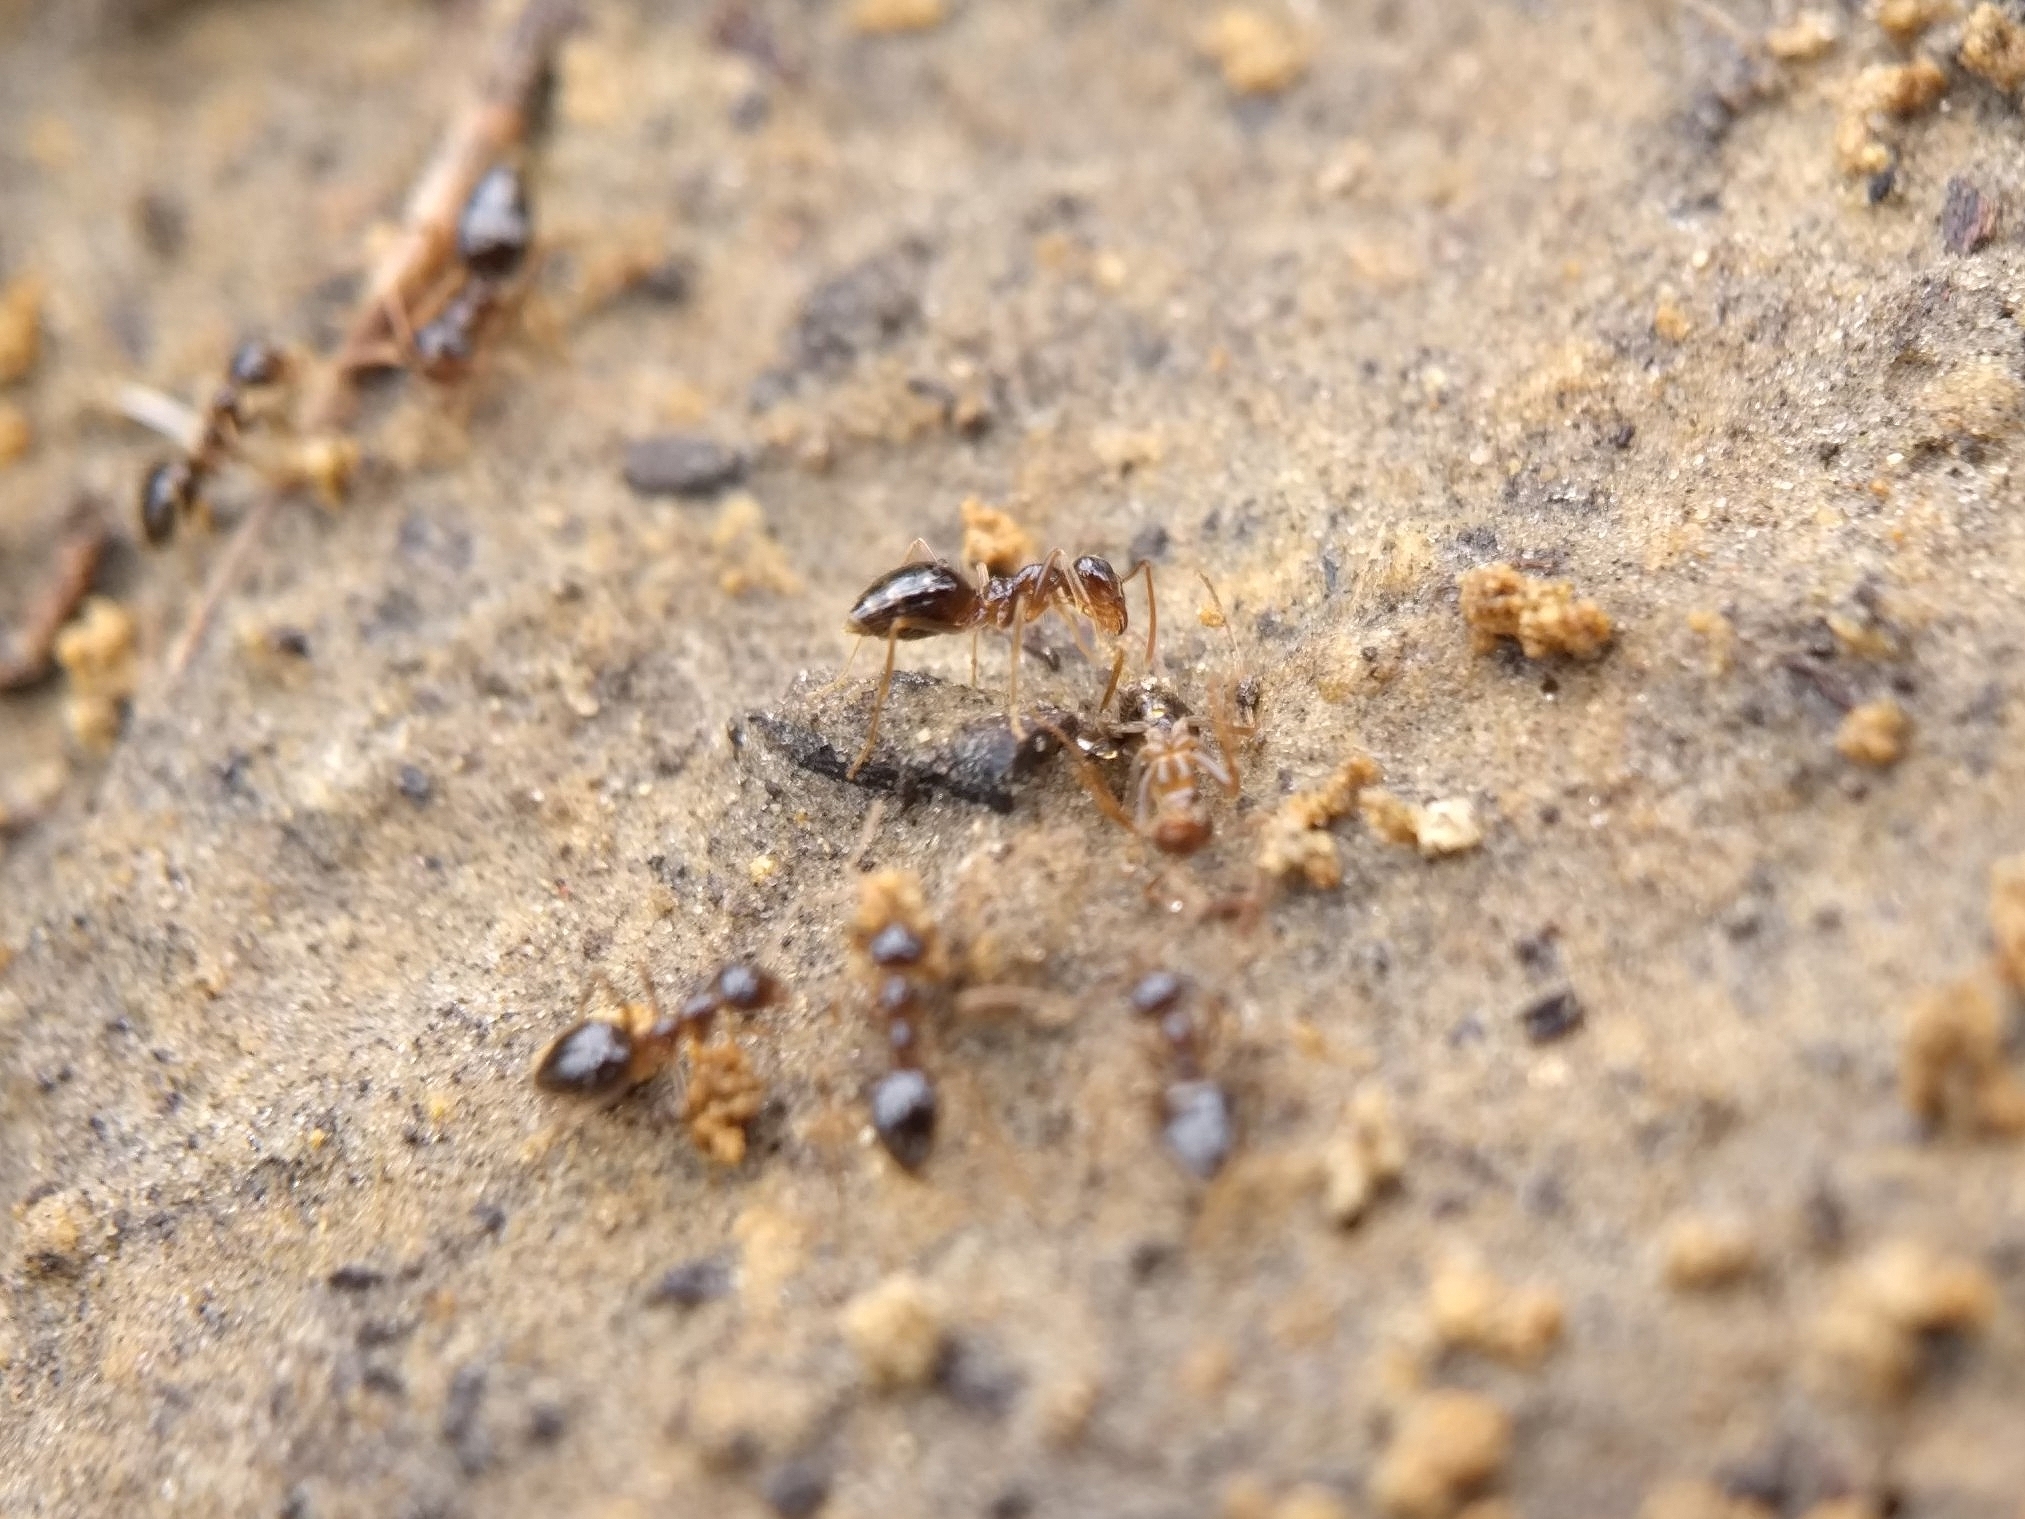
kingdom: Animalia
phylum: Arthropoda
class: Insecta
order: Hymenoptera
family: Formicidae
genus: Prenolepis
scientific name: Prenolepis imparis
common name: Small honey ant
